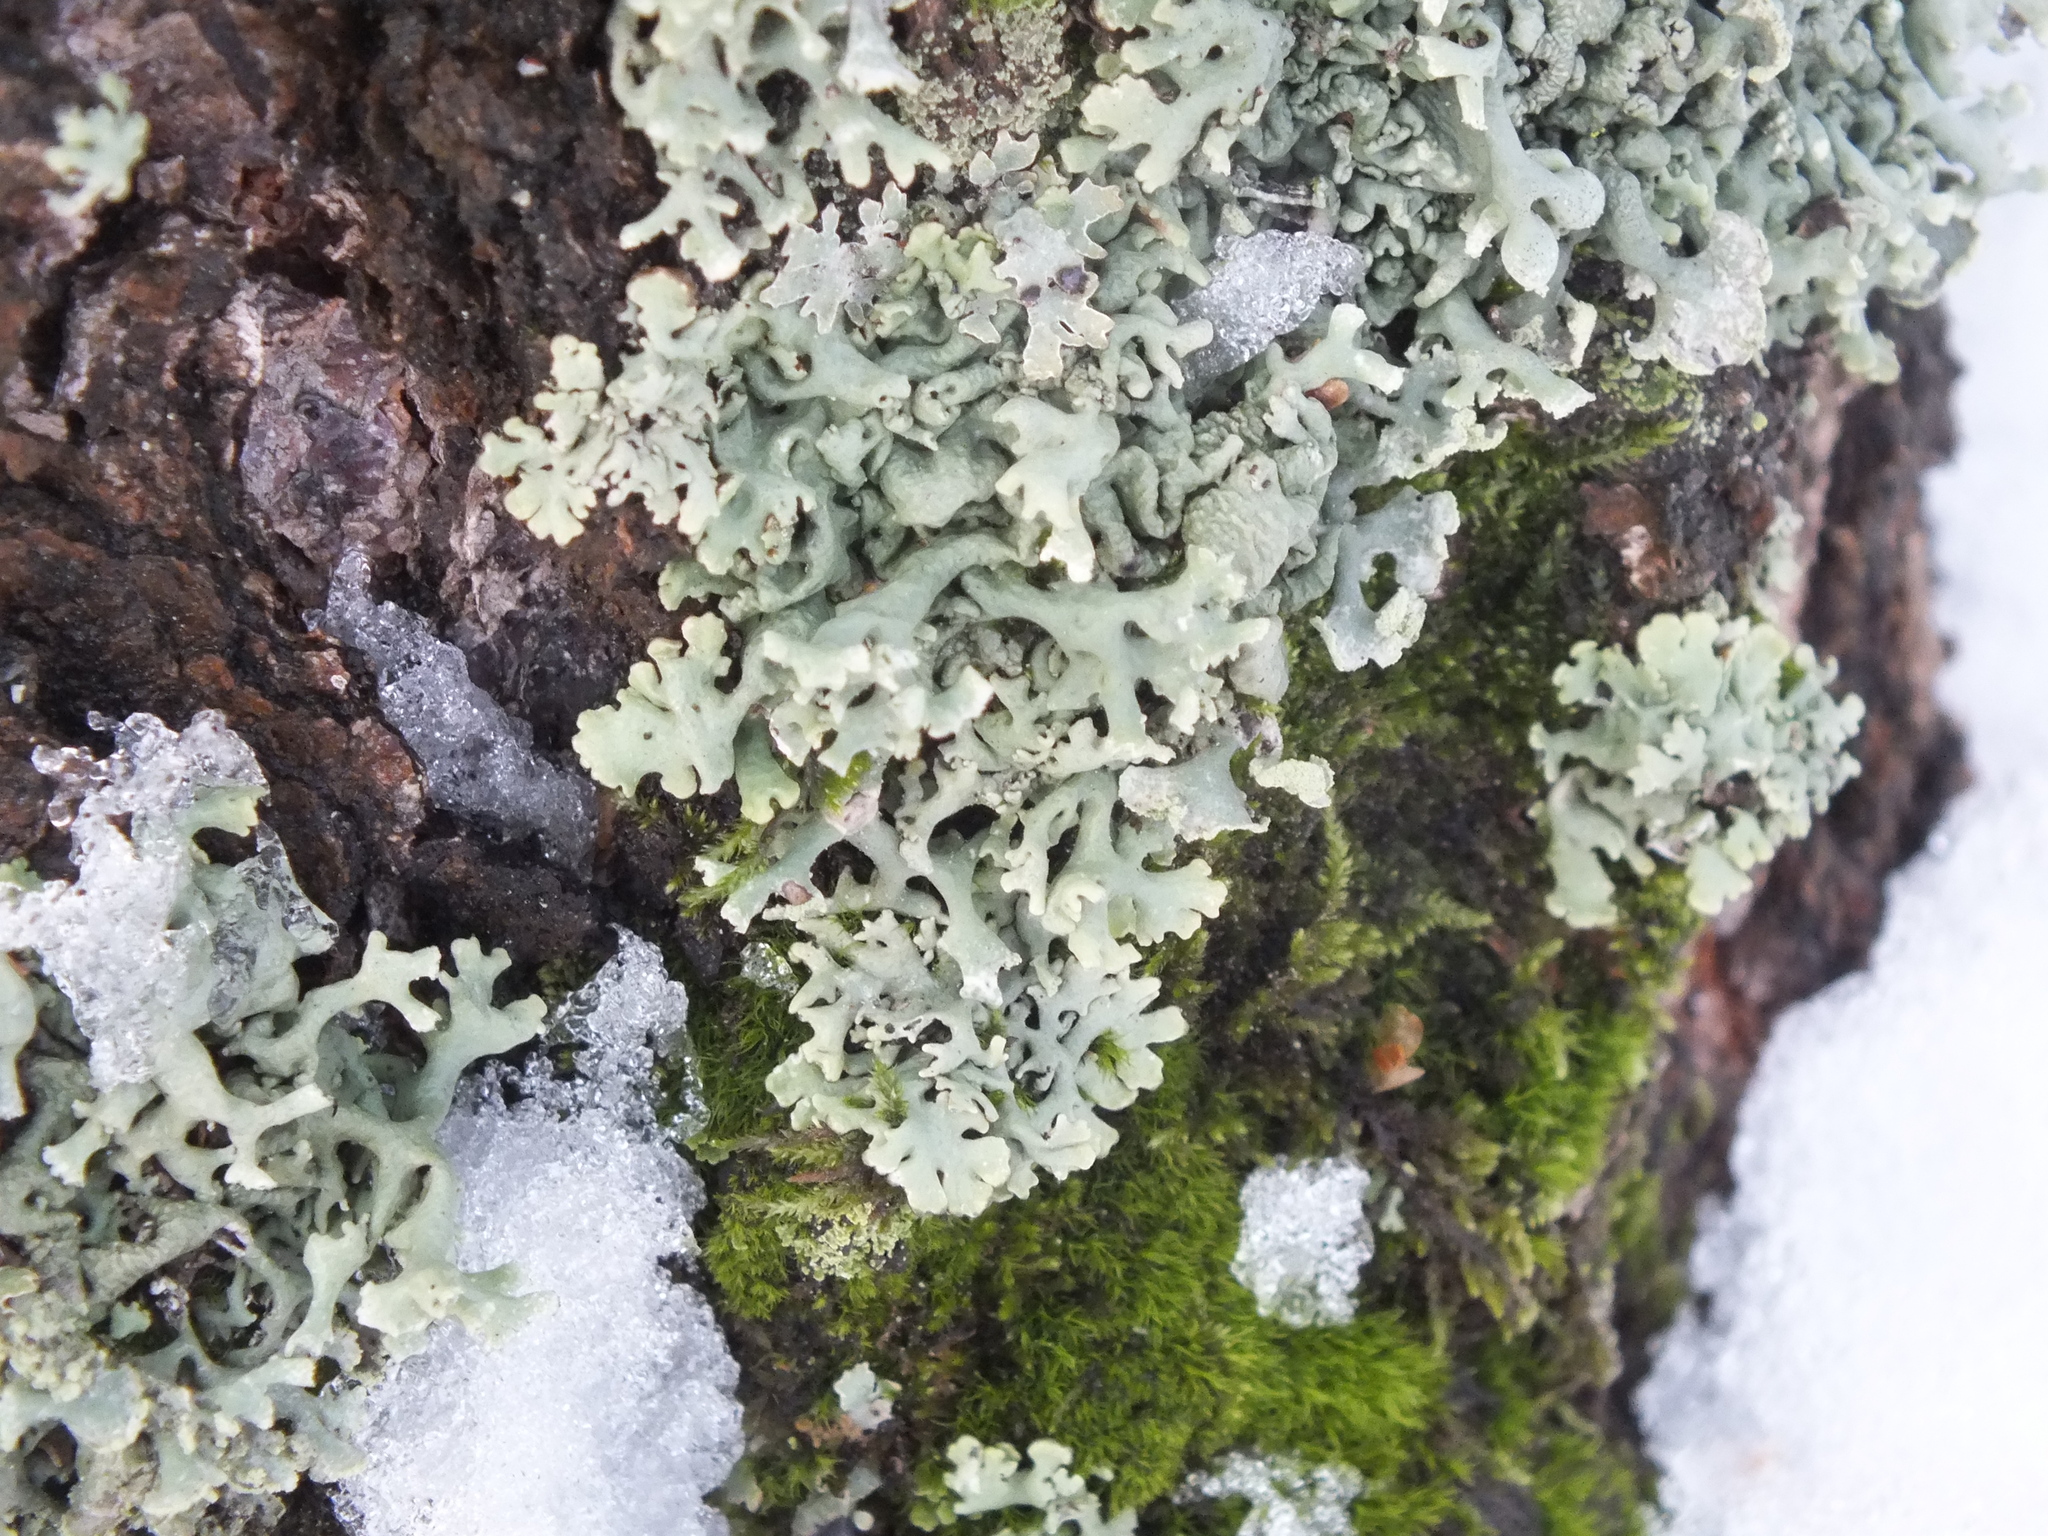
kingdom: Fungi
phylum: Ascomycota
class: Lecanoromycetes
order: Lecanorales
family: Parmeliaceae
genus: Hypogymnia
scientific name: Hypogymnia physodes
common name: Dark crottle
